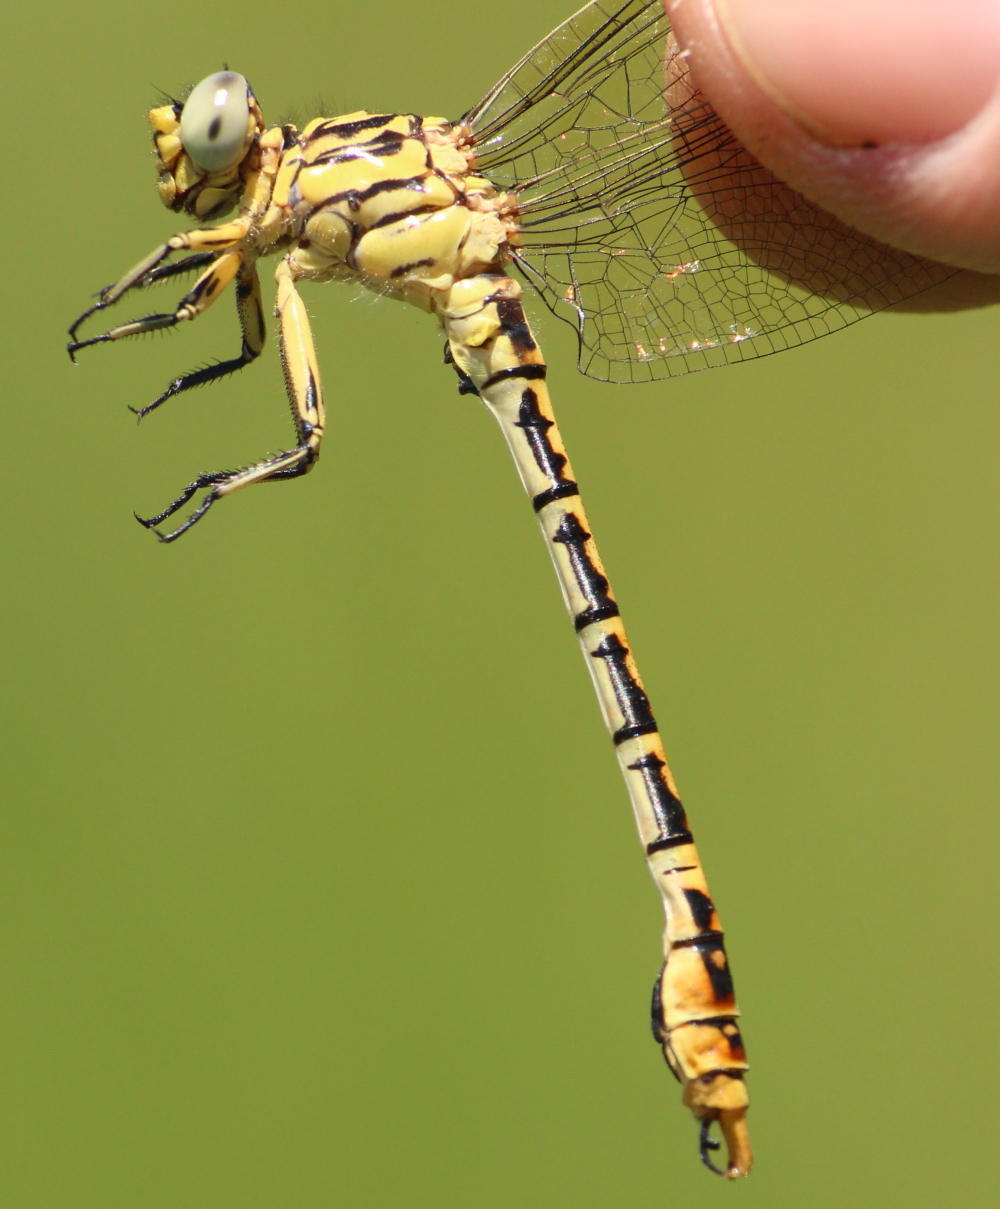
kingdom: Animalia
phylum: Arthropoda
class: Insecta
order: Odonata
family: Gomphidae
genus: Onychogomphus
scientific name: Onychogomphus supinus
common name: Gorge claspertail
